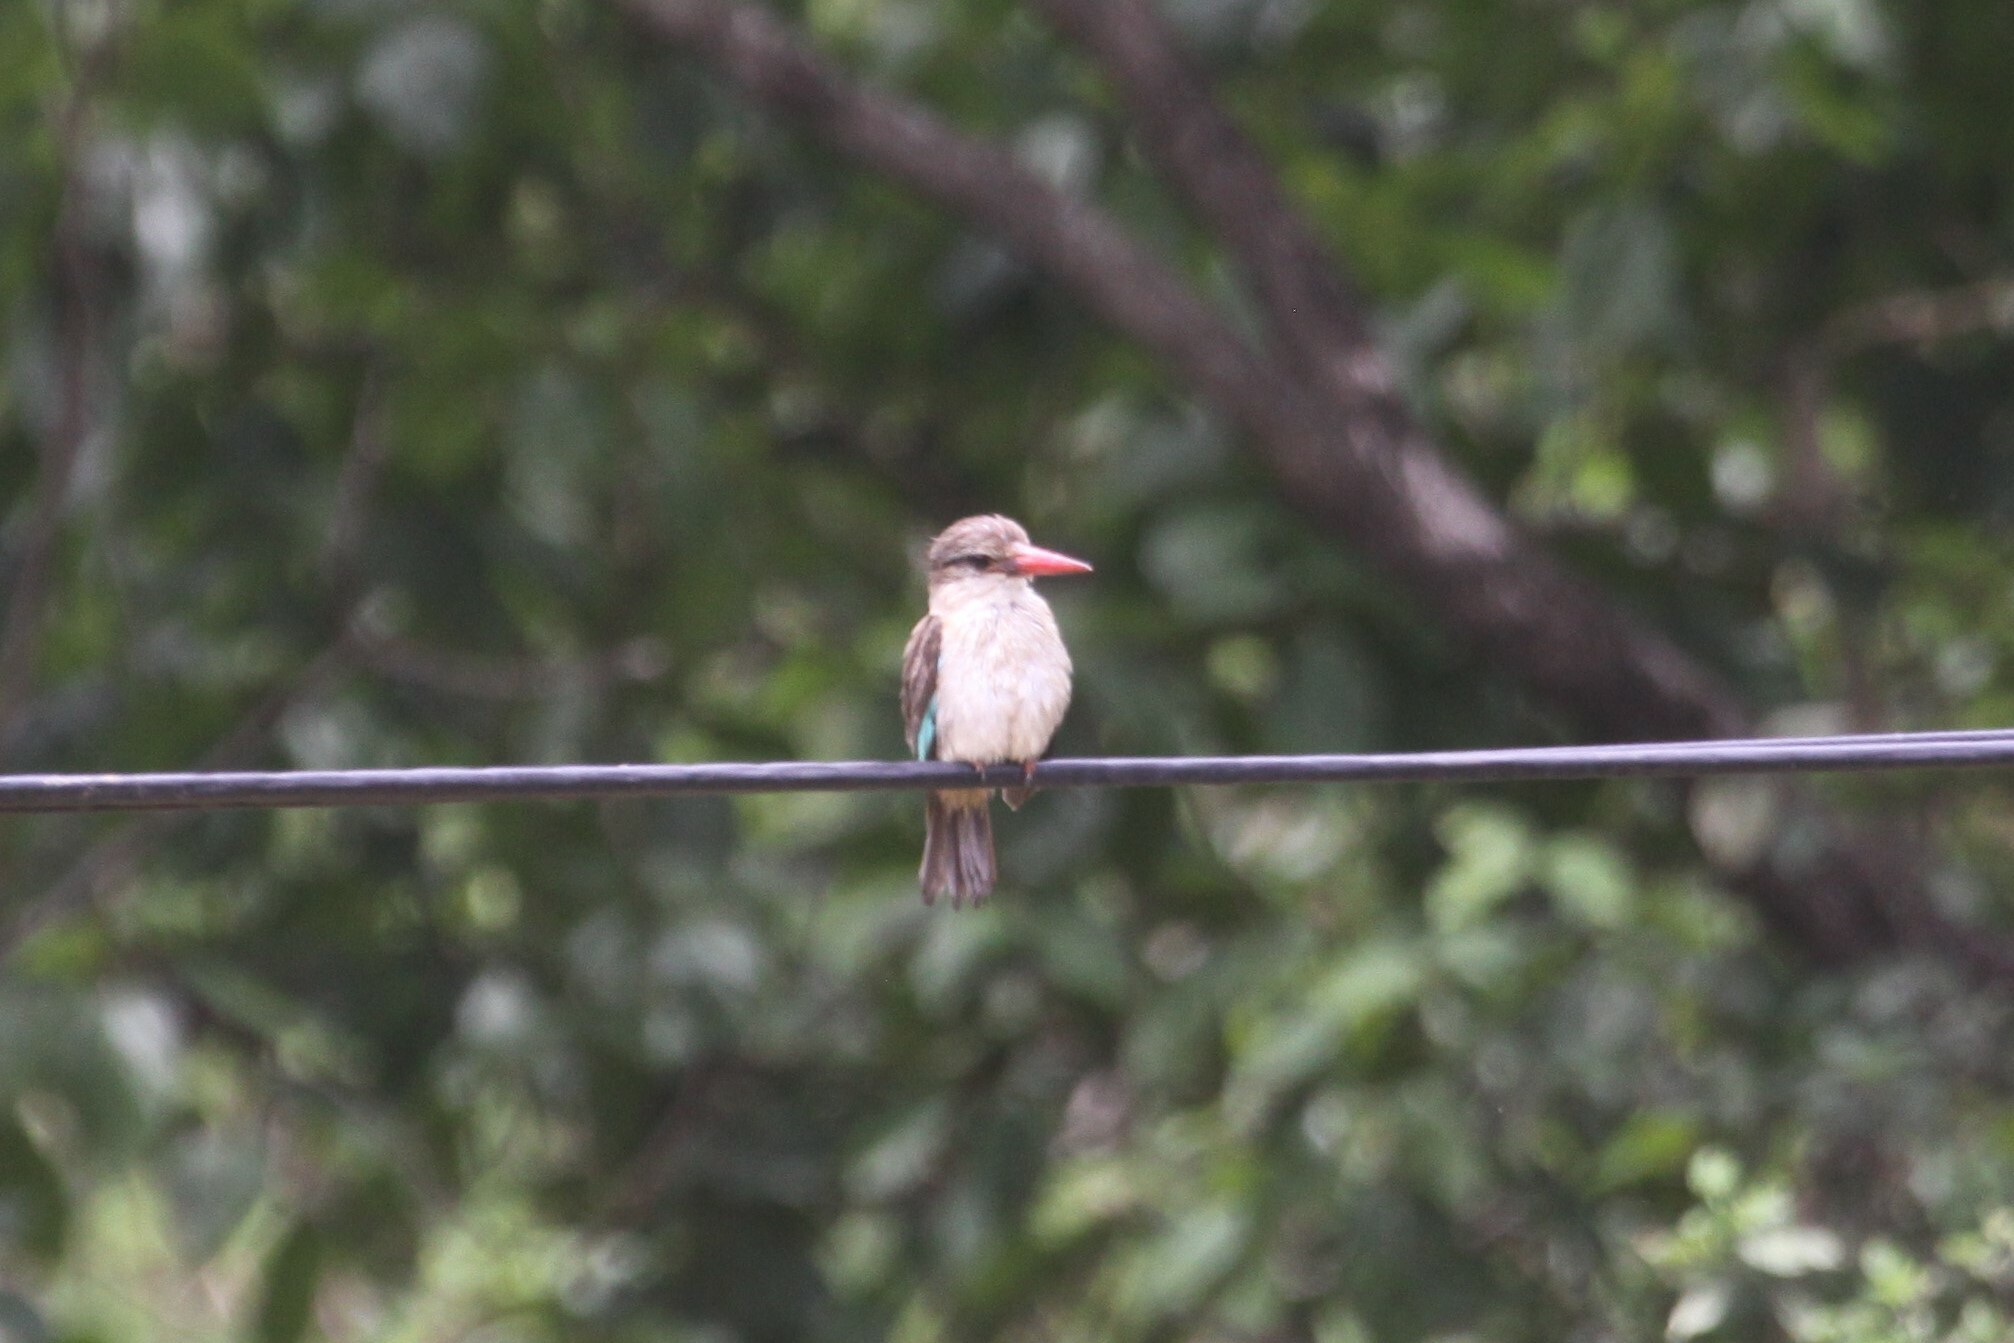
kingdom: Animalia
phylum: Chordata
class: Aves
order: Coraciiformes
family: Alcedinidae
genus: Halcyon
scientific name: Halcyon albiventris
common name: Brown-hooded kingfisher
